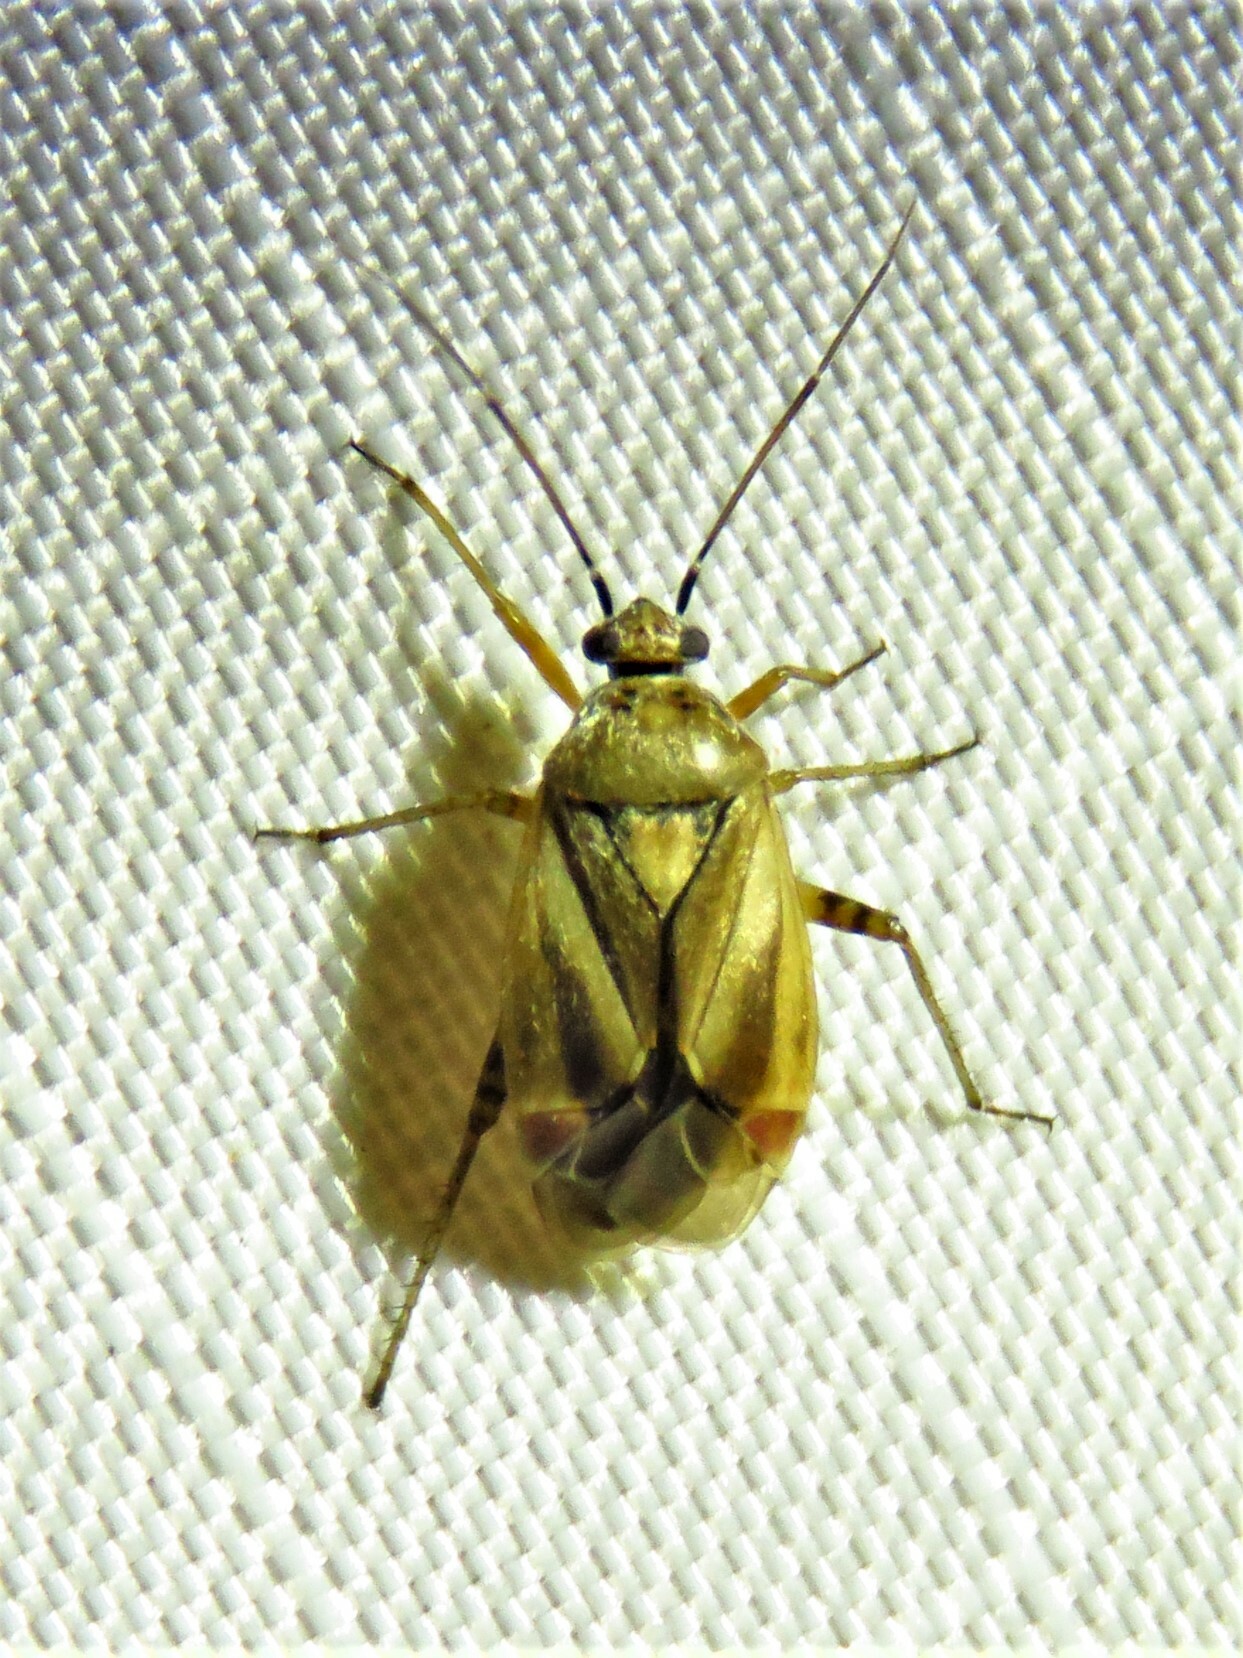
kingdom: Animalia
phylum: Arthropoda
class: Insecta
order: Hemiptera
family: Miridae
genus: Polymerus
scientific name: Polymerus basalis
